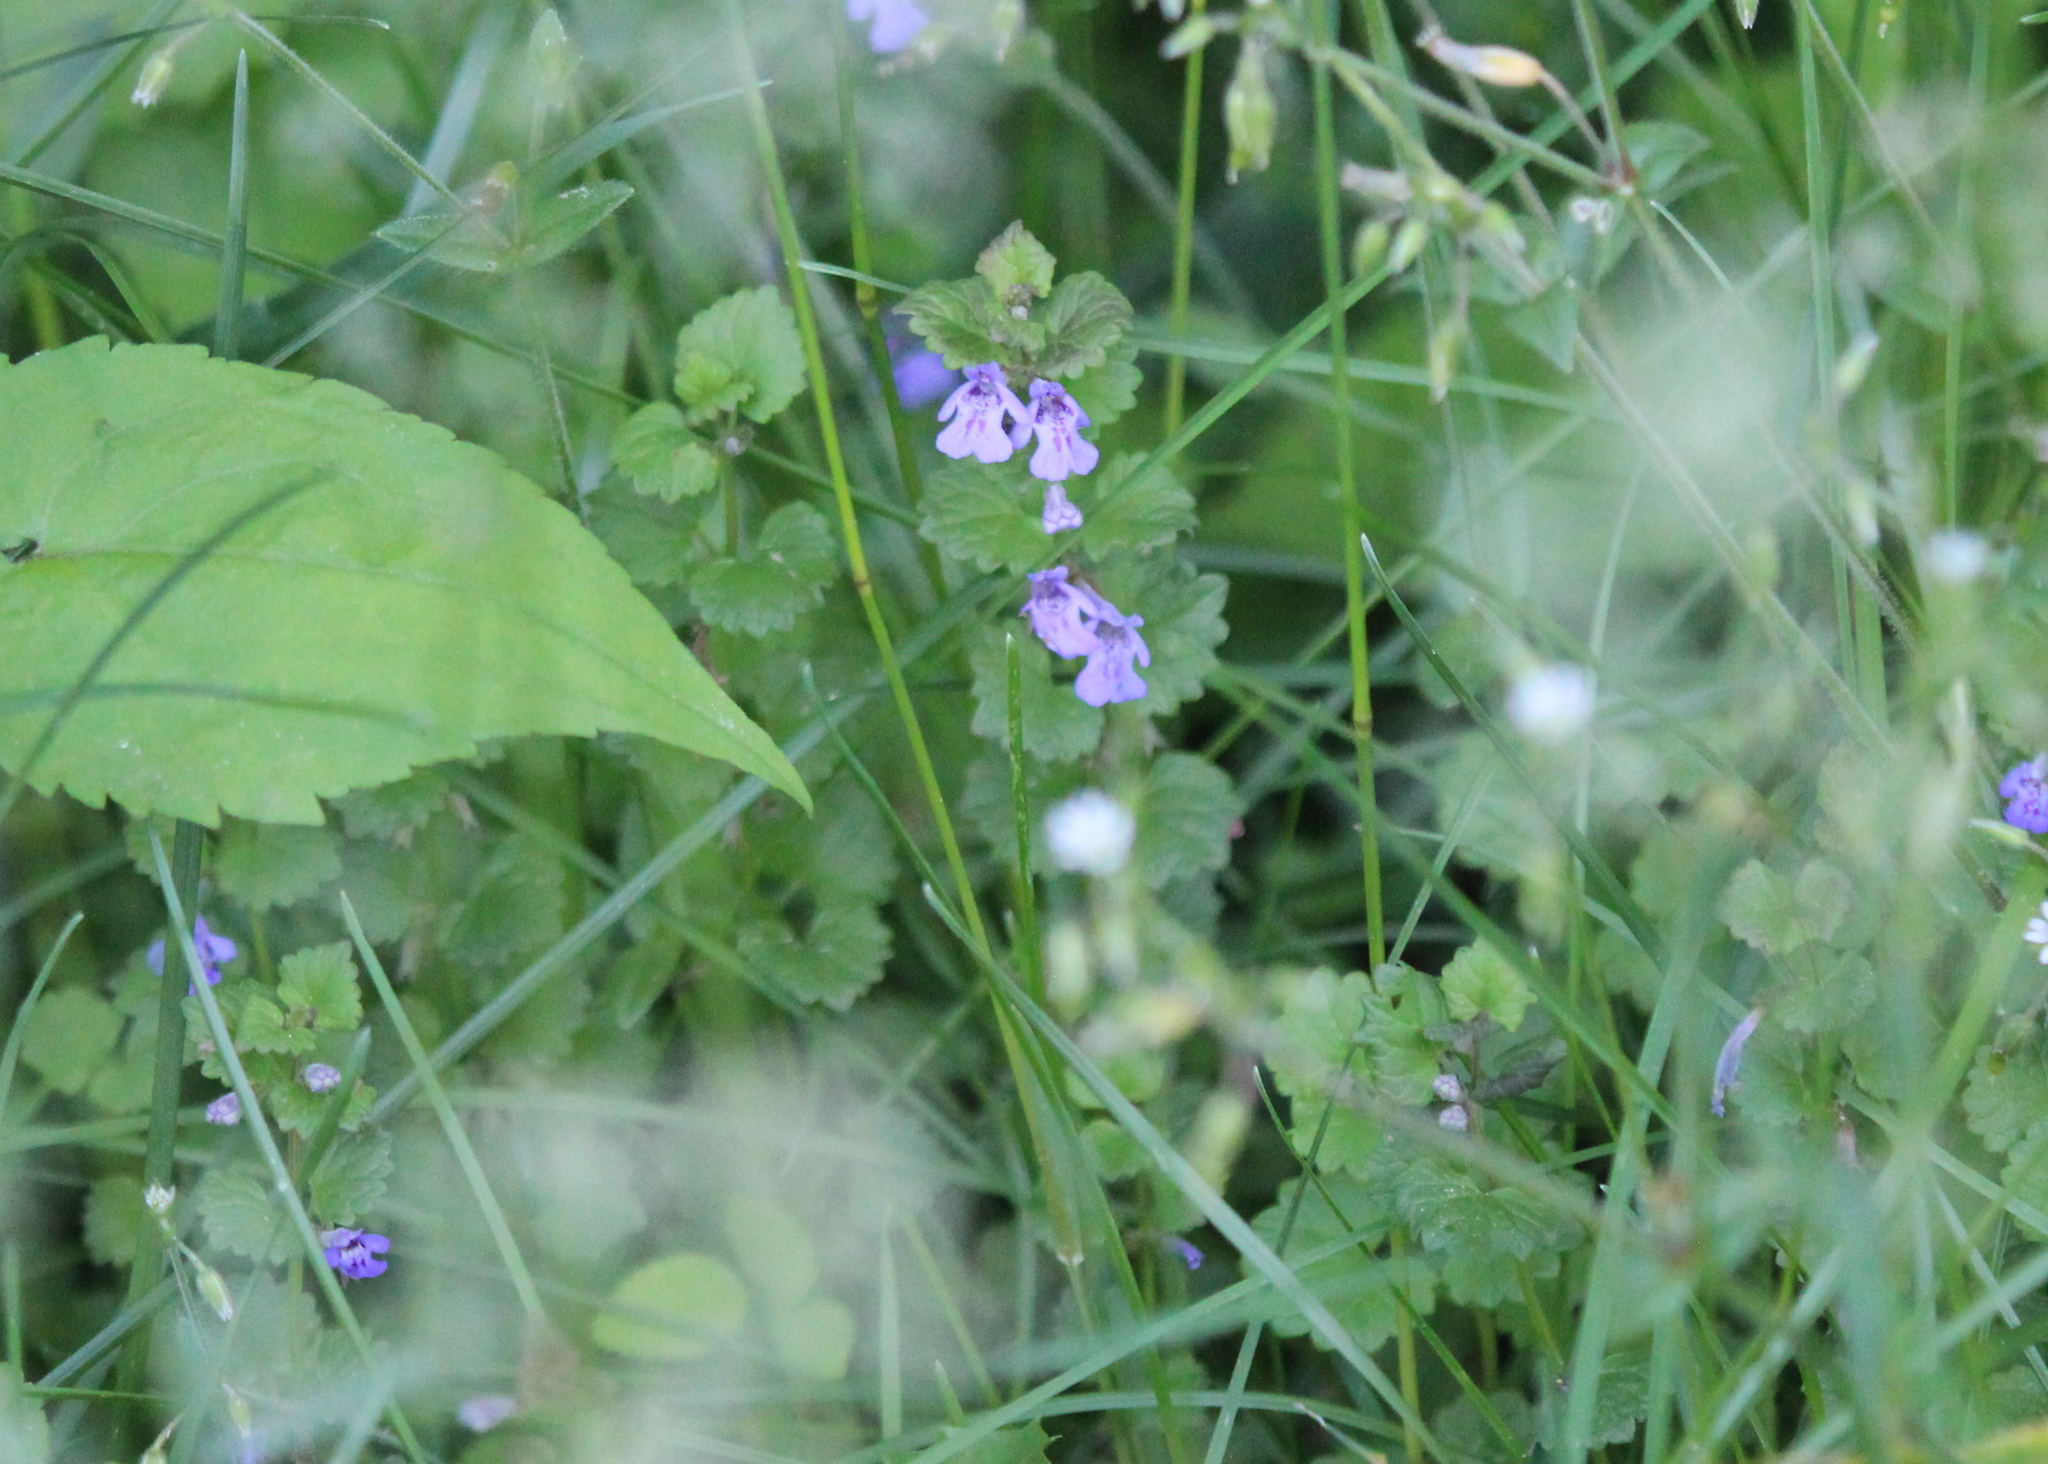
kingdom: Plantae
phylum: Tracheophyta
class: Magnoliopsida
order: Lamiales
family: Lamiaceae
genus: Glechoma
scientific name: Glechoma hederacea
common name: Ground ivy
